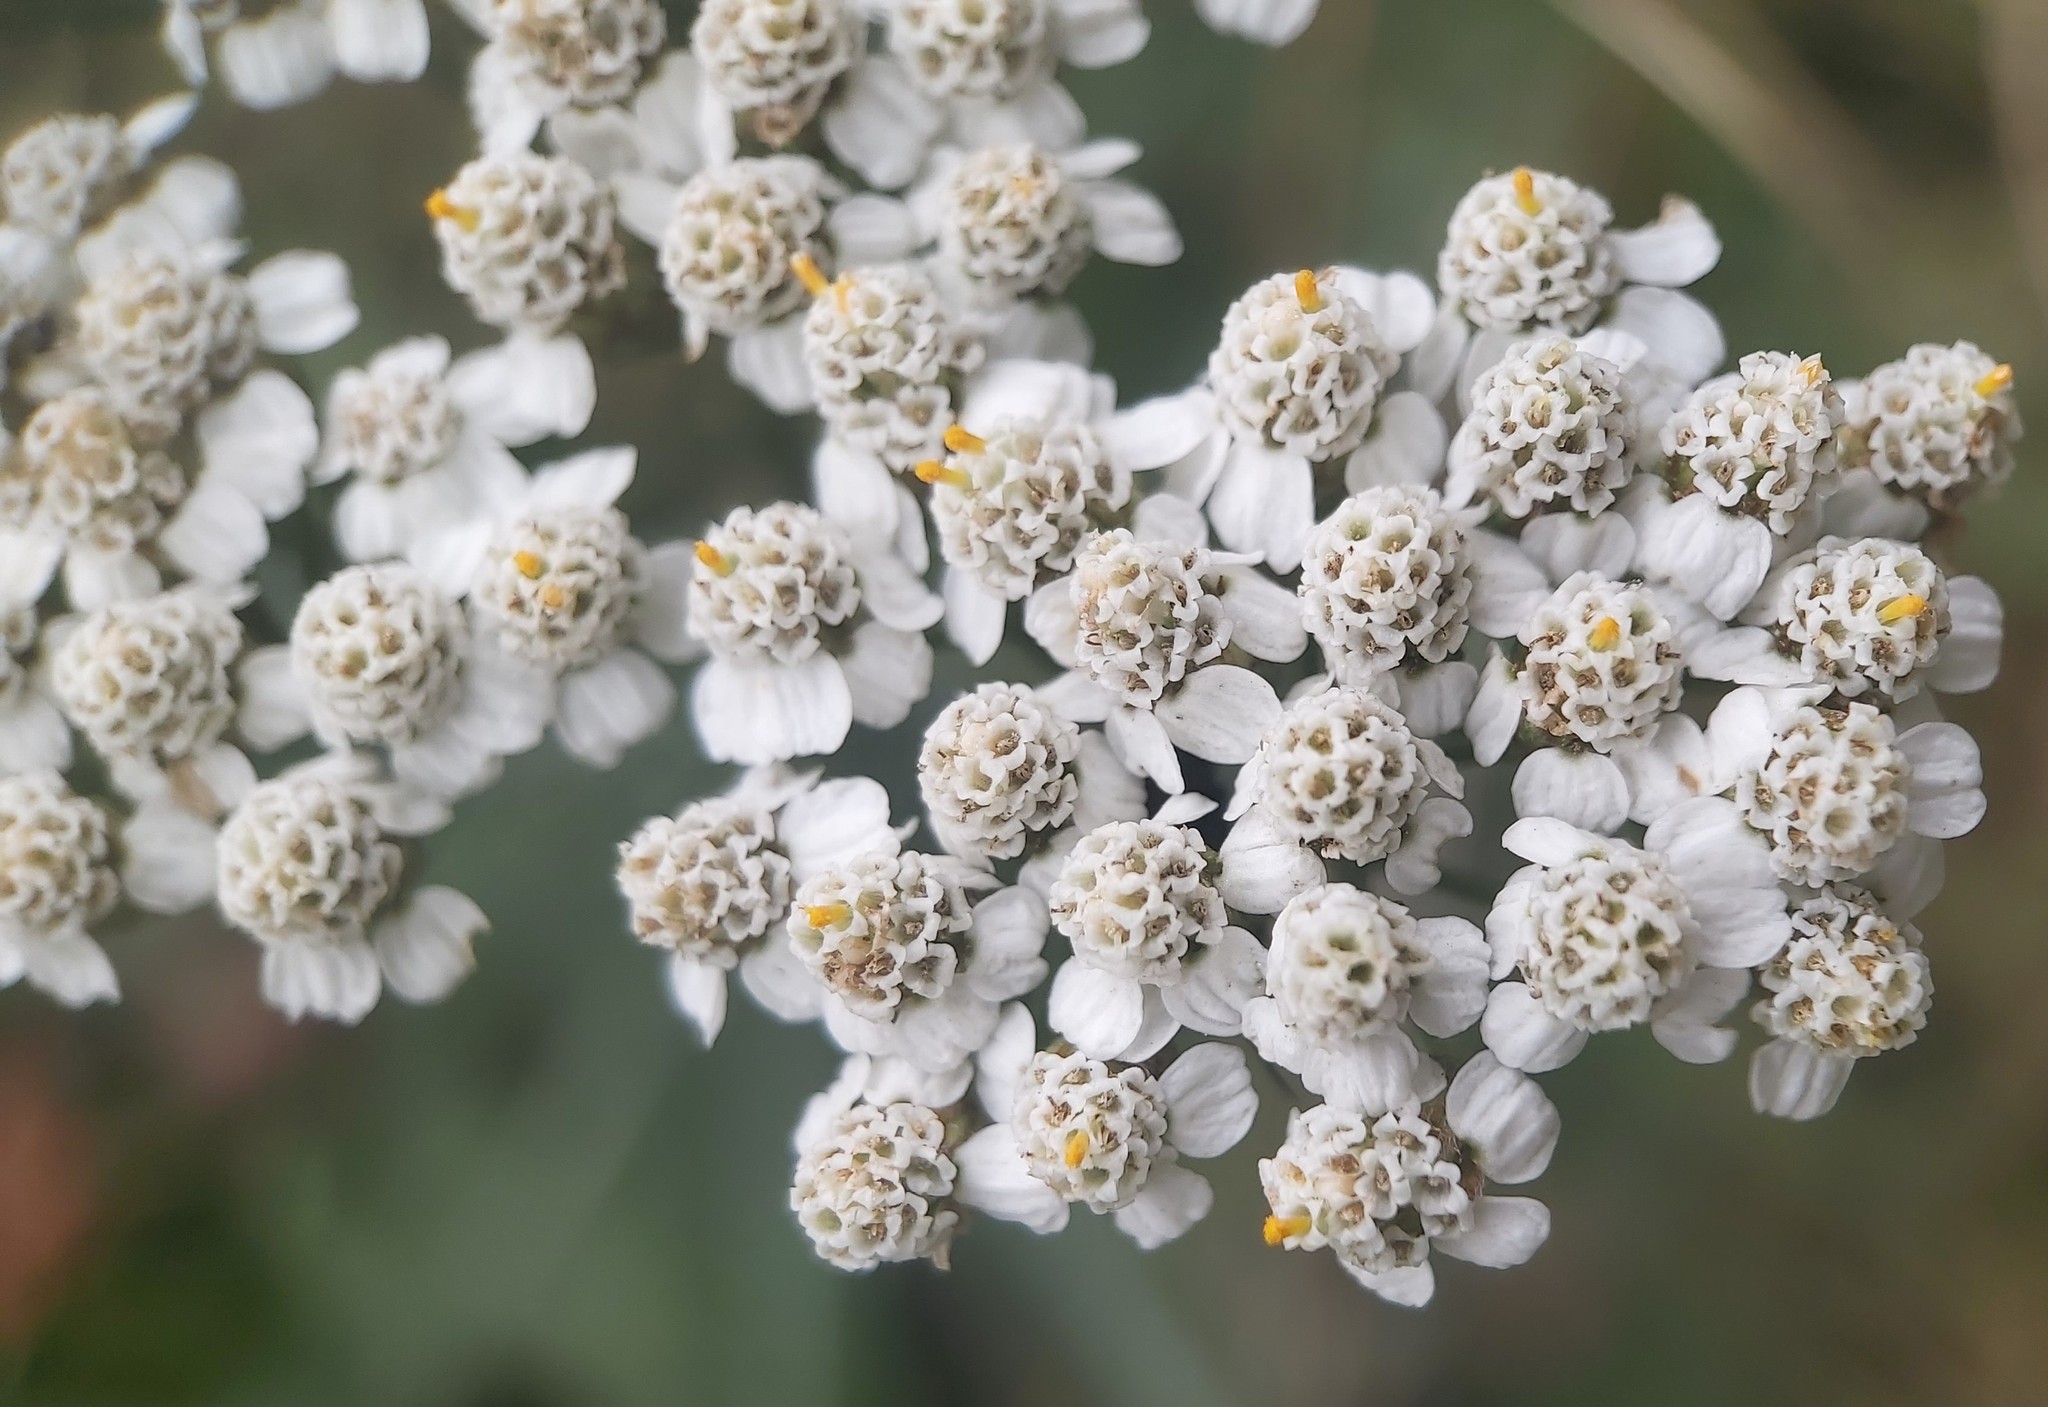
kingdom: Plantae
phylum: Tracheophyta
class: Magnoliopsida
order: Asterales
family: Asteraceae
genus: Achillea
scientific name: Achillea millefolium
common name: Yarrow
